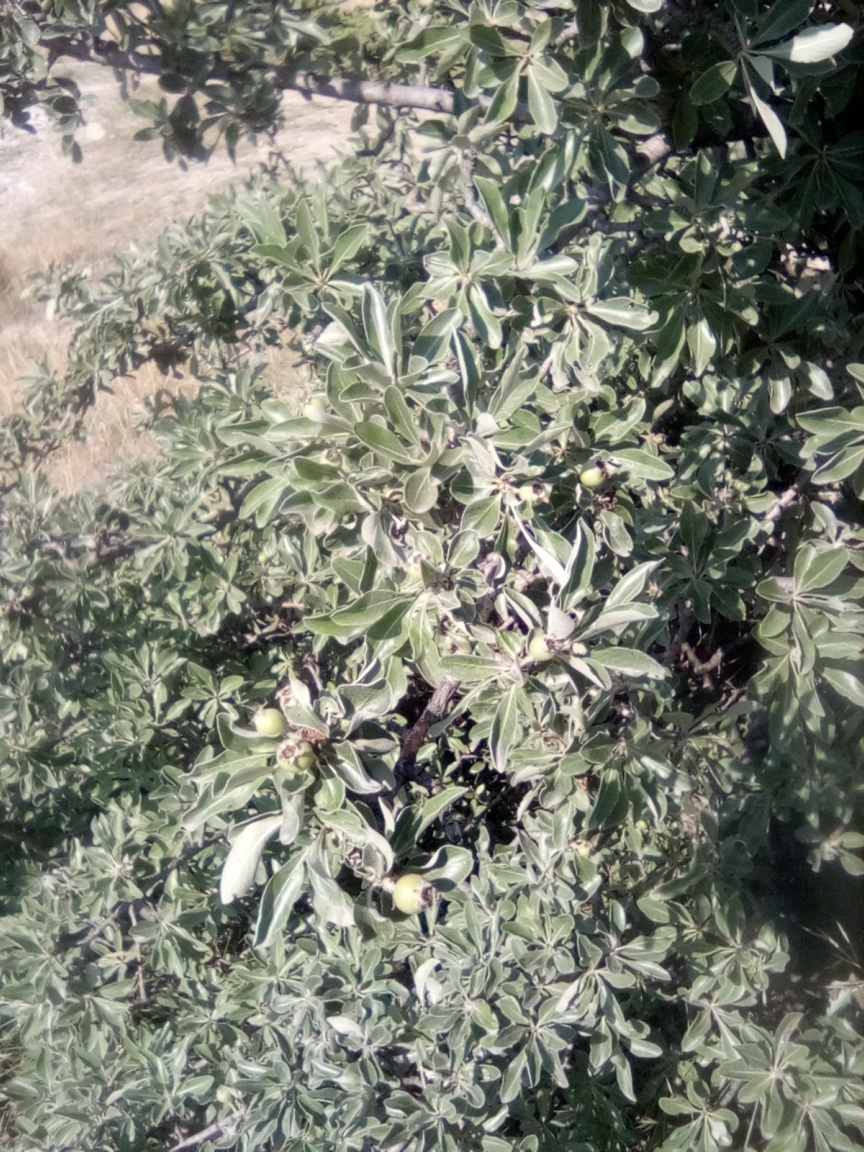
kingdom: Plantae
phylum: Tracheophyta
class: Magnoliopsida
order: Rosales
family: Rosaceae
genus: Pyrus
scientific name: Pyrus elaeagrifolia
